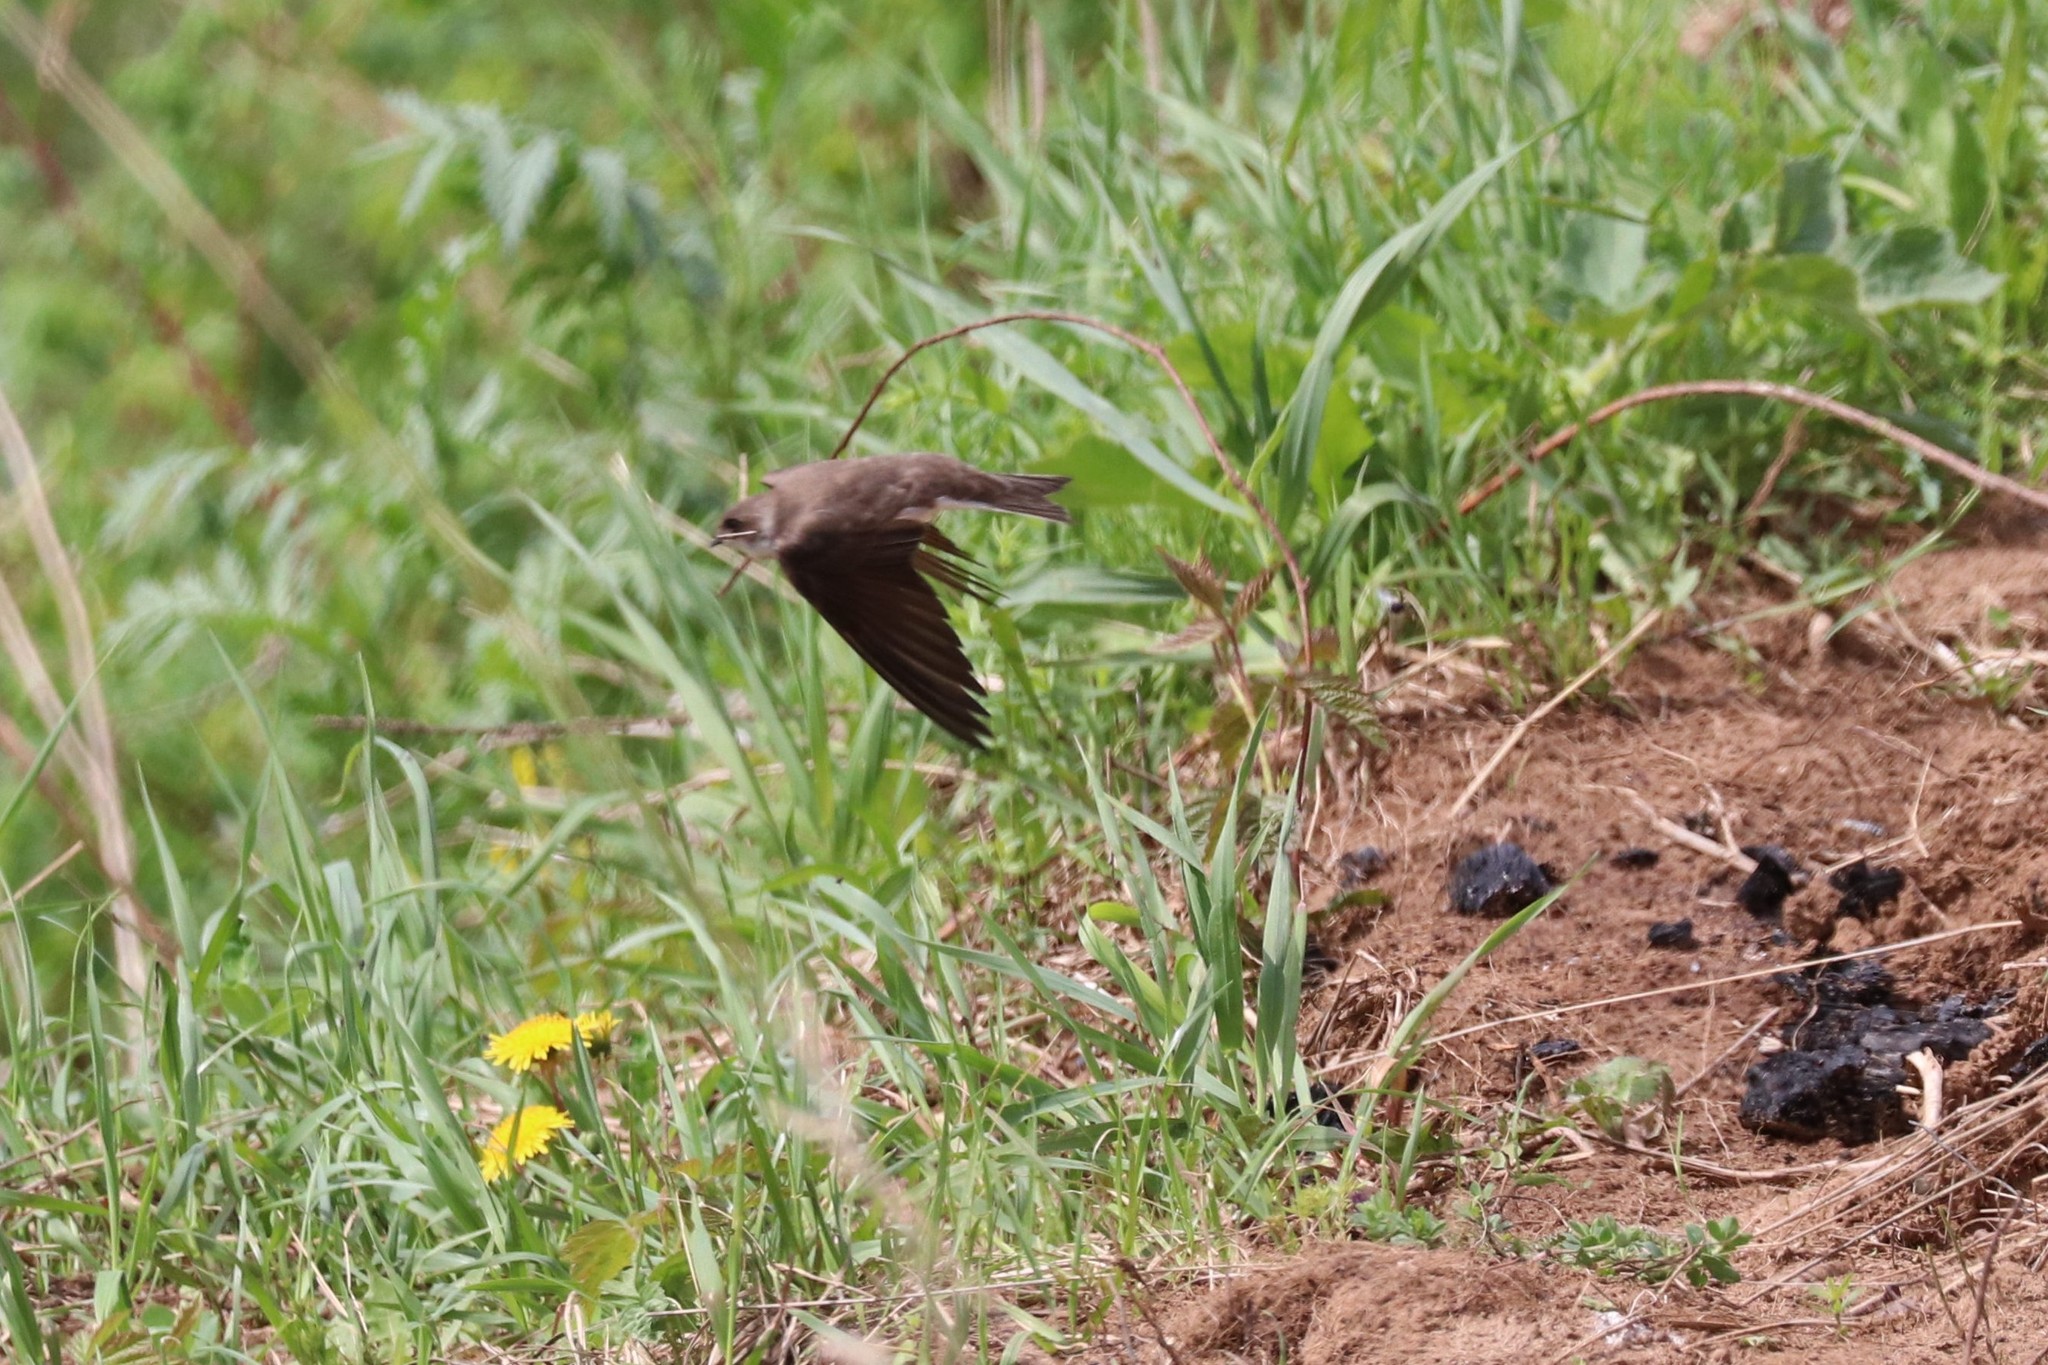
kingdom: Animalia
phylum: Chordata
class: Aves
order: Passeriformes
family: Hirundinidae
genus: Riparia
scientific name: Riparia riparia
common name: Sand martin
